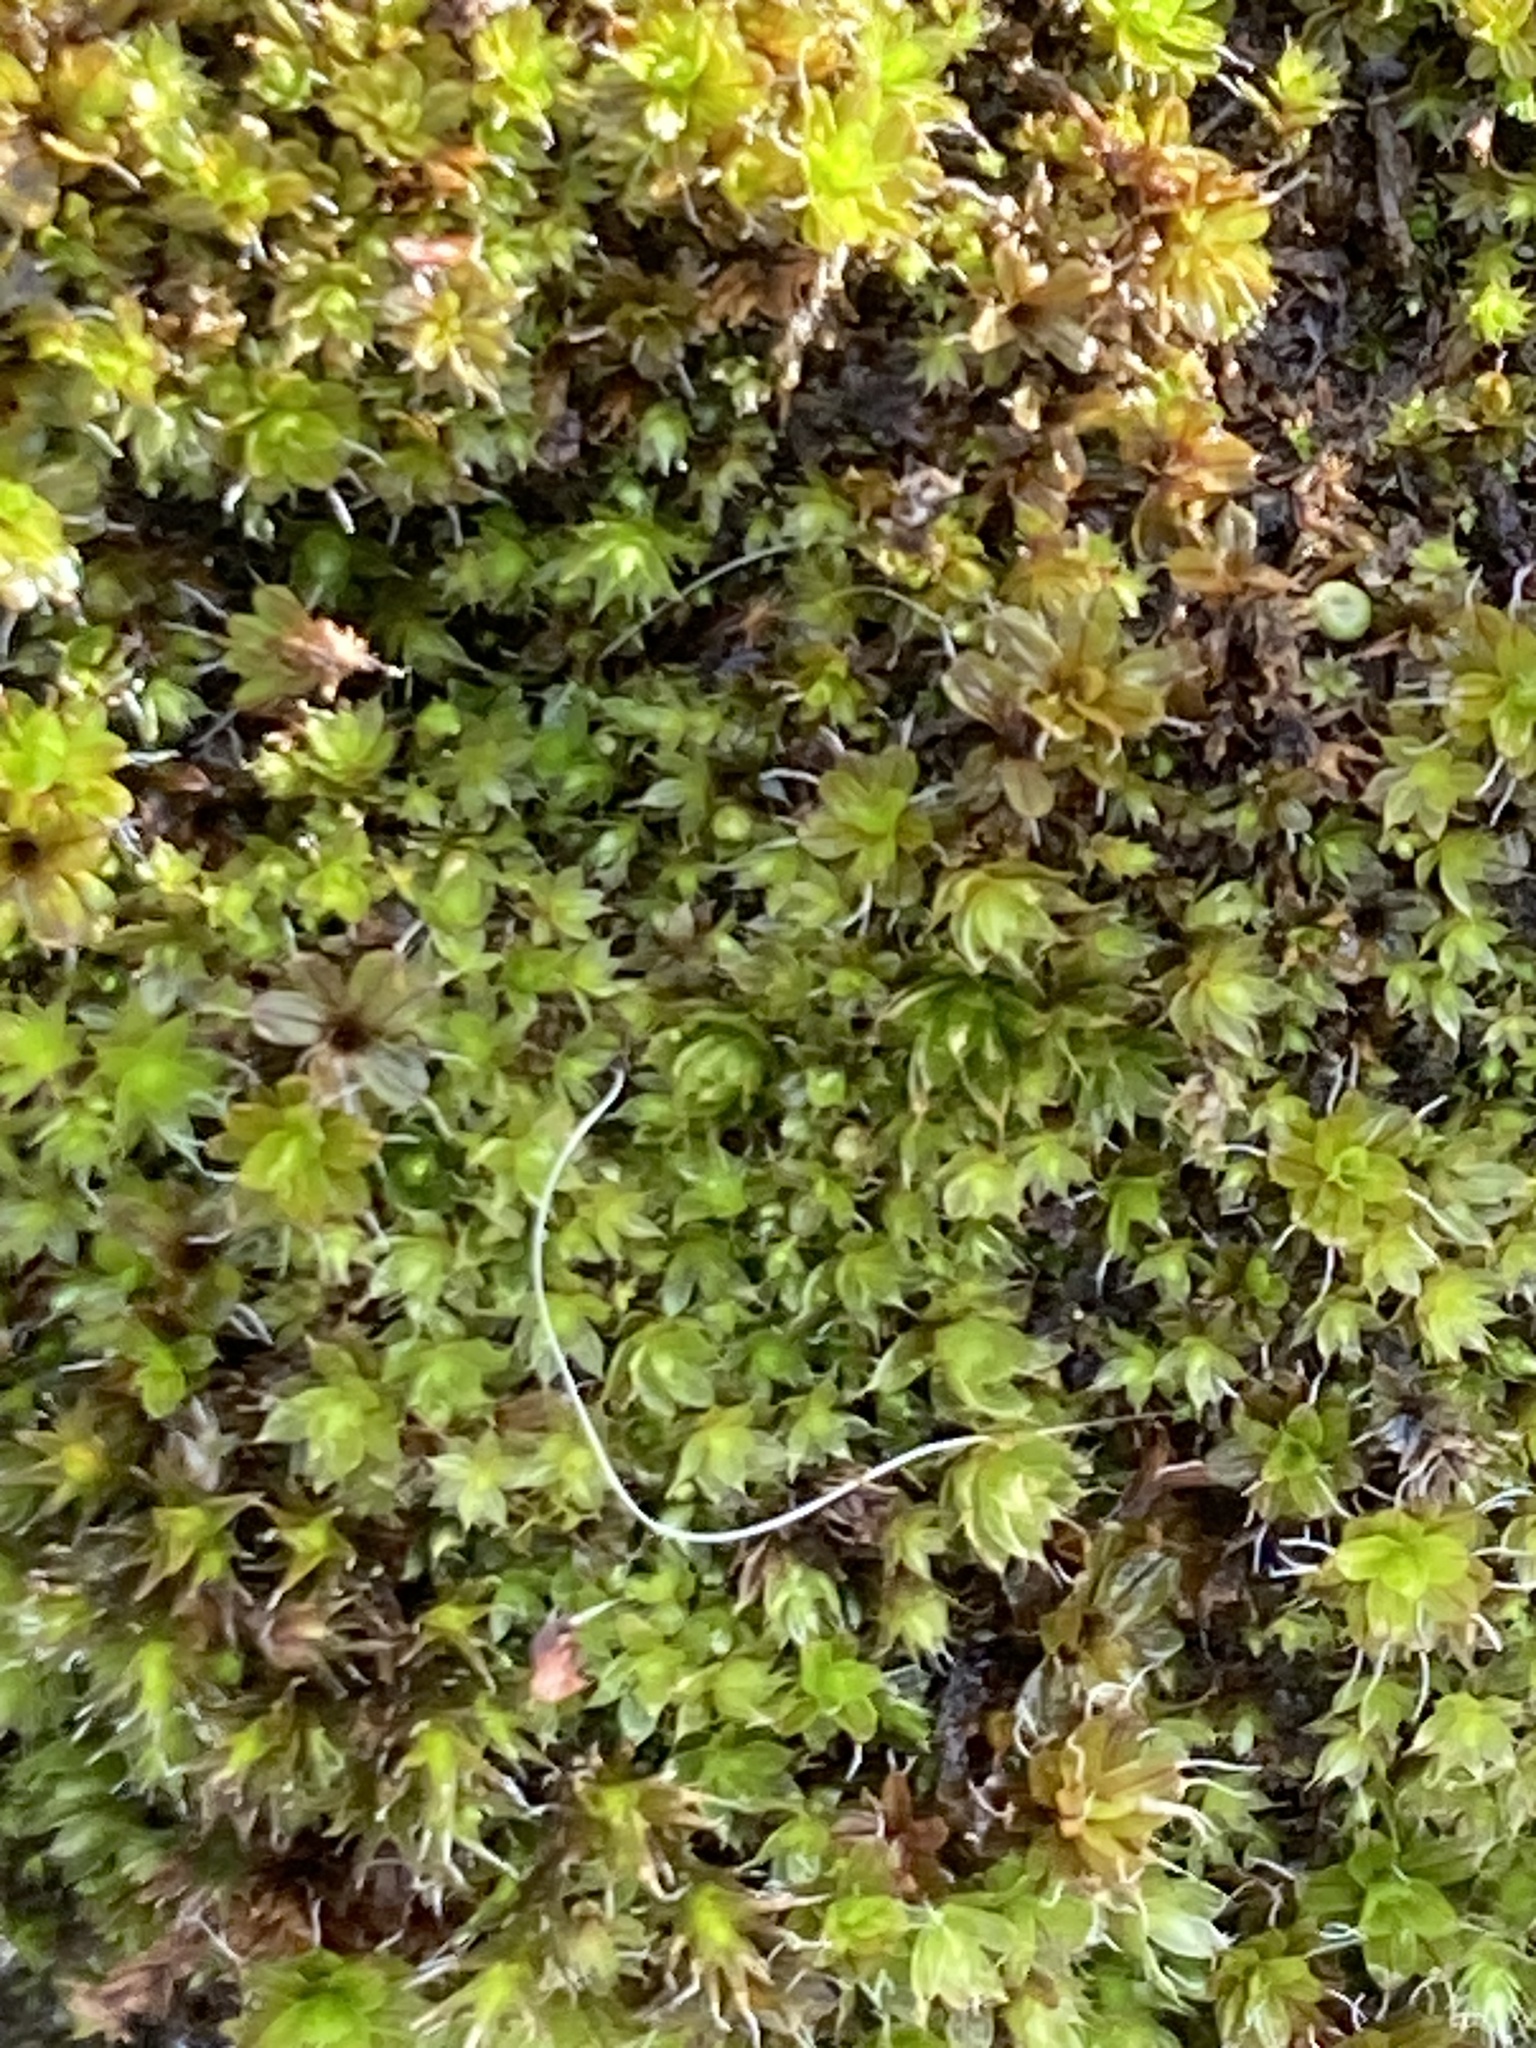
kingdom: Plantae
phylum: Bryophyta
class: Bryopsida
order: Pottiales
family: Pottiaceae
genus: Syntrichia
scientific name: Syntrichia montana
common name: Intermediate screw-moss
